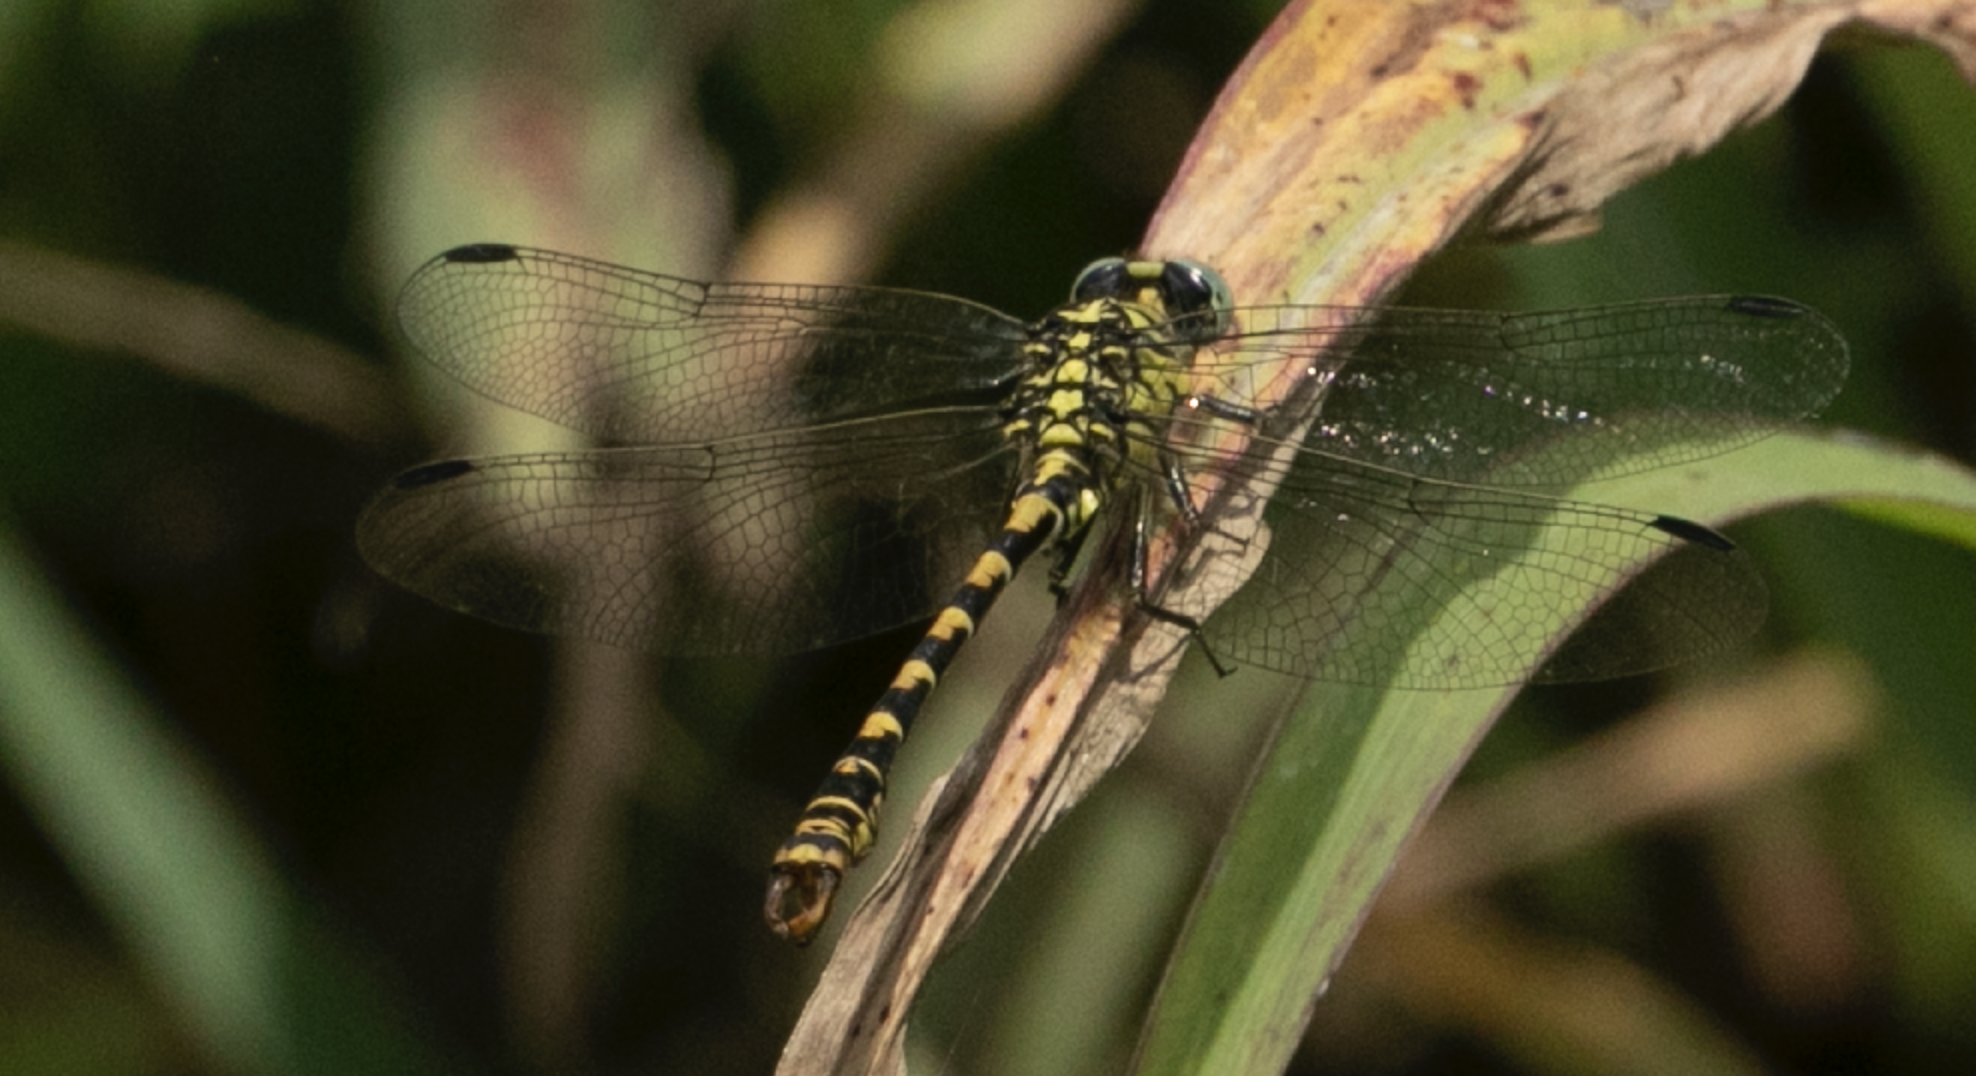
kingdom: Animalia
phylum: Arthropoda
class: Insecta
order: Odonata
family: Gomphidae
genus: Onychogomphus
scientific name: Onychogomphus forcipatus
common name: Small pincertail
